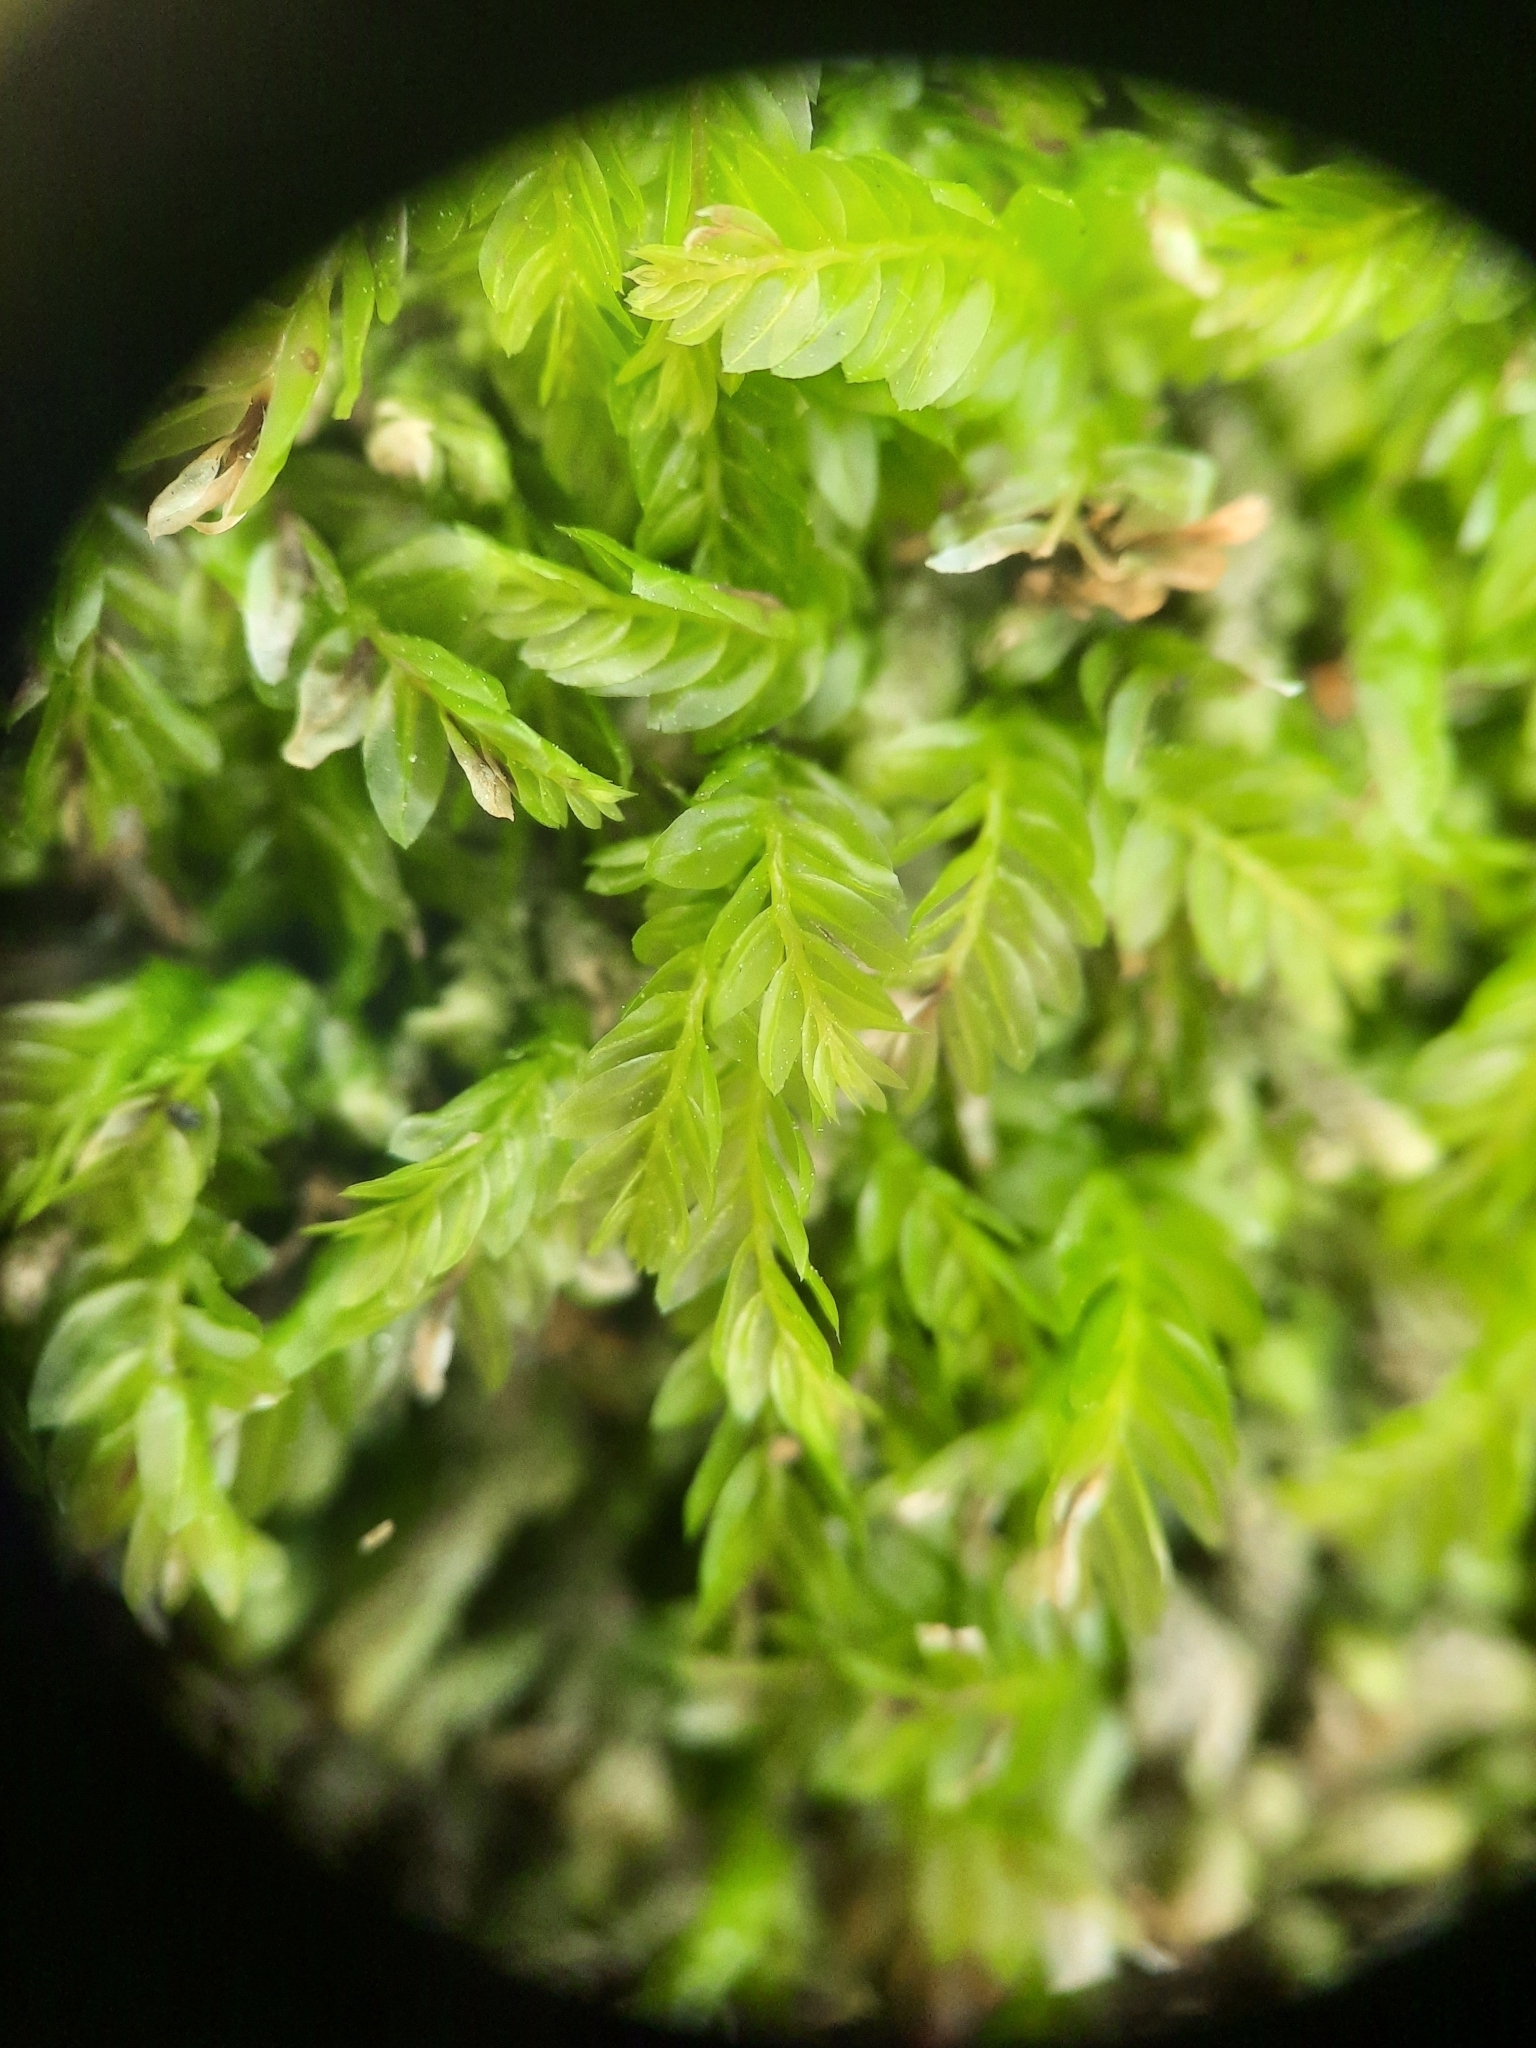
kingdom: Plantae
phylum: Bryophyta
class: Bryopsida
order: Rhizogoniales
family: Rhizogoniaceae
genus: Rhizogonium
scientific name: Rhizogonium distichum
